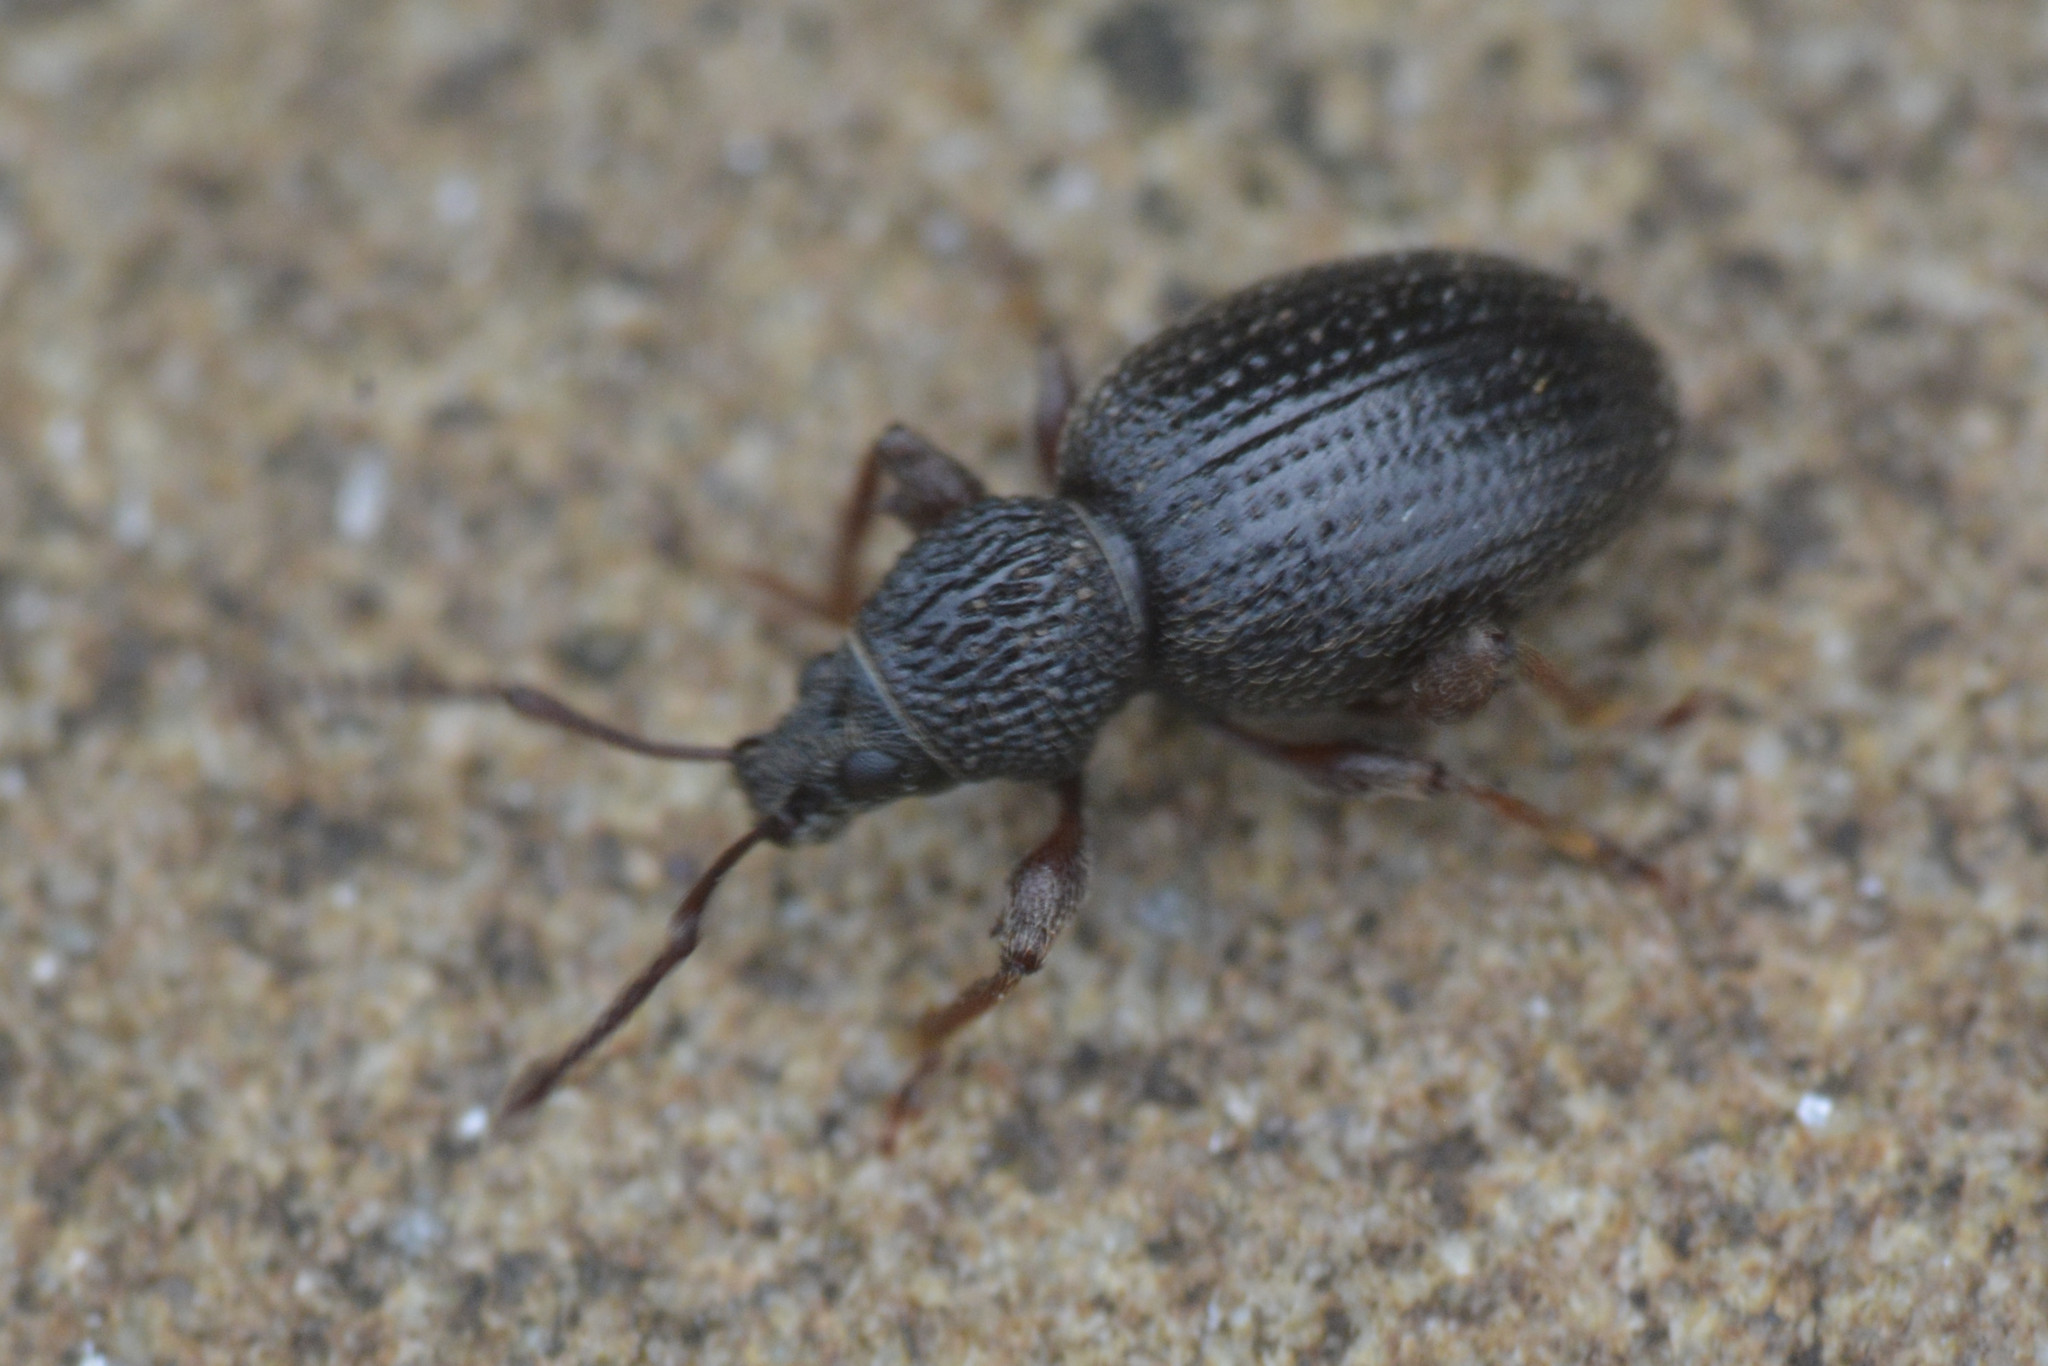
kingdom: Animalia
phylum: Arthropoda
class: Insecta
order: Coleoptera
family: Curculionidae
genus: Otiorhynchus
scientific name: Otiorhynchus ovatus
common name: Strawberry root weevil
